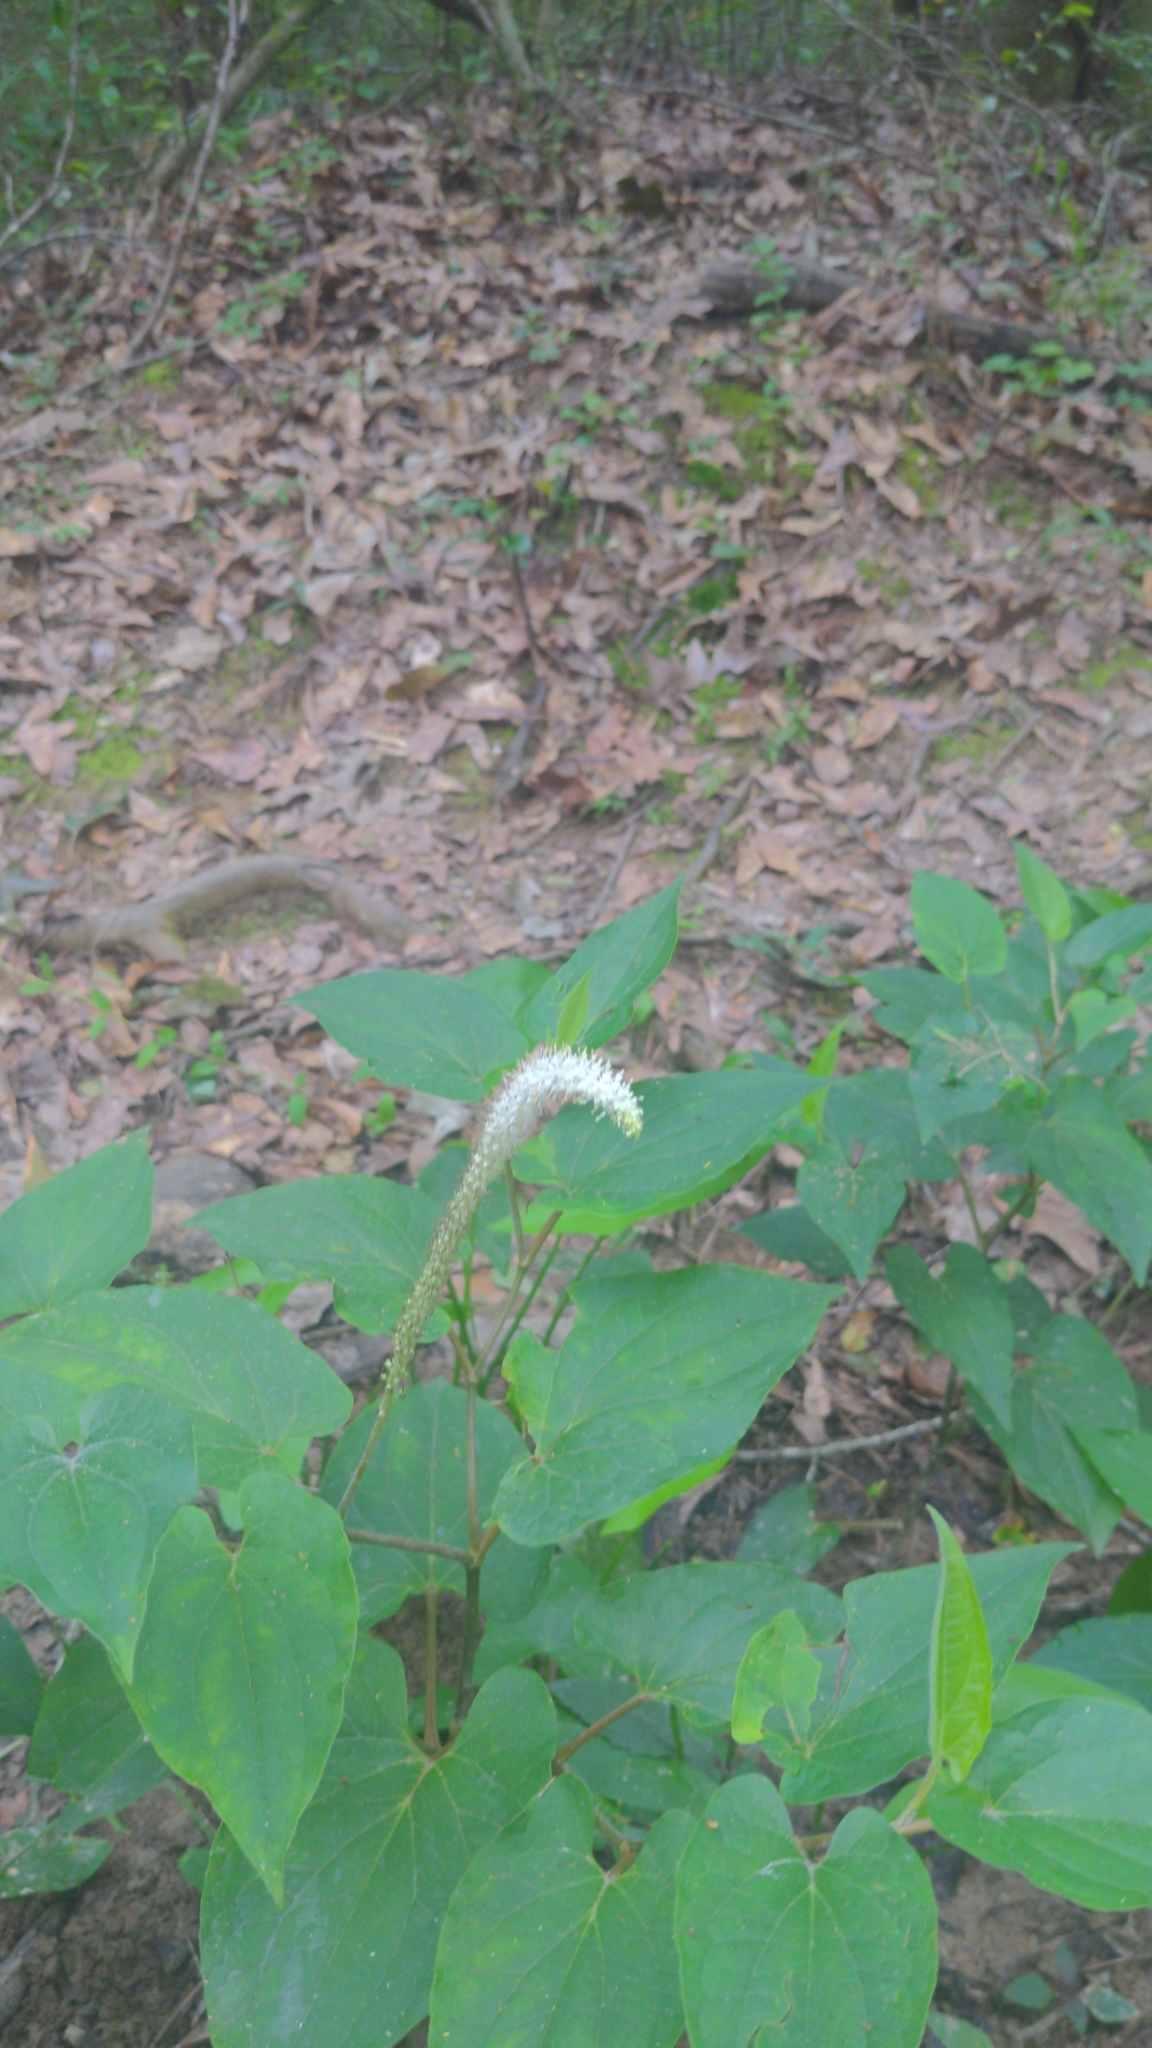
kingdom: Plantae
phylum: Tracheophyta
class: Magnoliopsida
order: Piperales
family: Saururaceae
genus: Saururus
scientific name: Saururus cernuus
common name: Lizard's-tail
